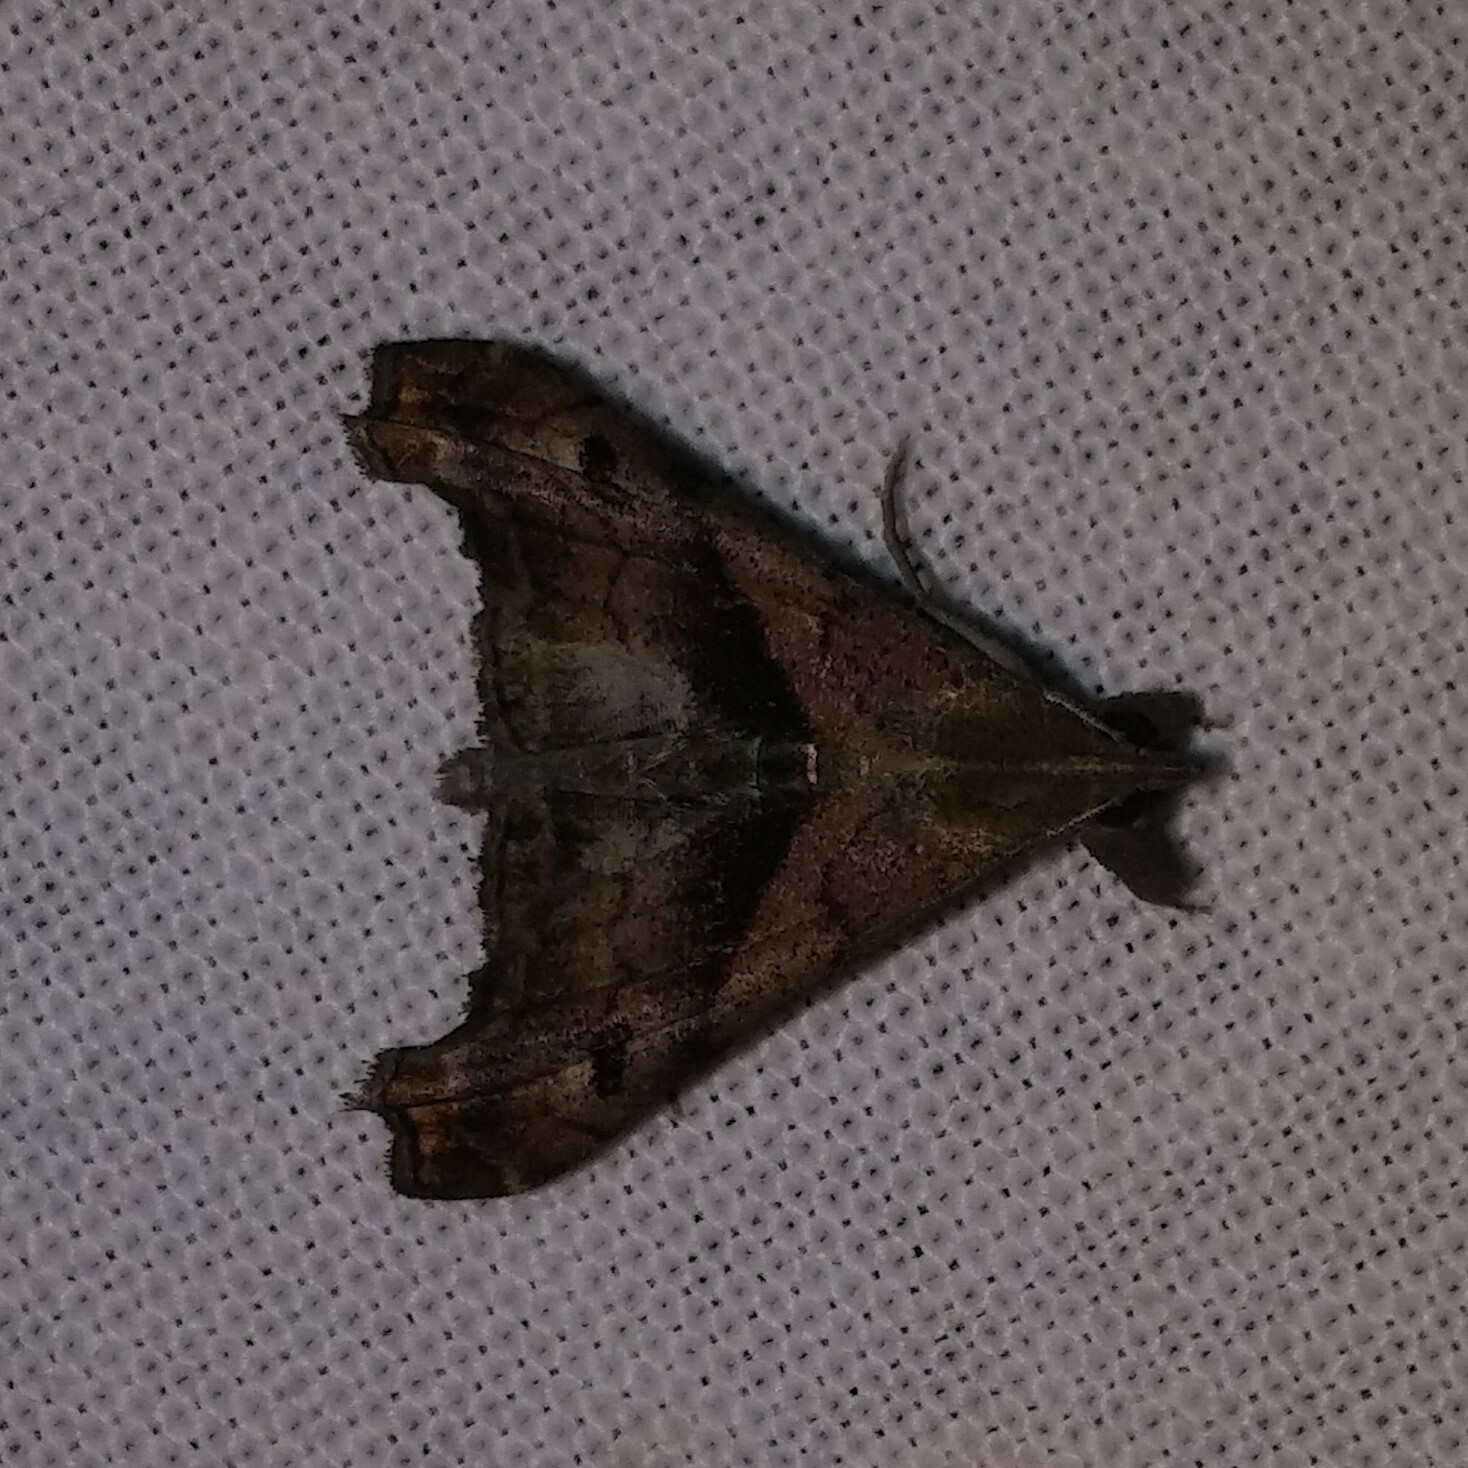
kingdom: Animalia
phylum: Arthropoda
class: Insecta
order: Lepidoptera
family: Erebidae
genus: Palthis
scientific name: Palthis angulalis
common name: Dark-spotted palthis moth
